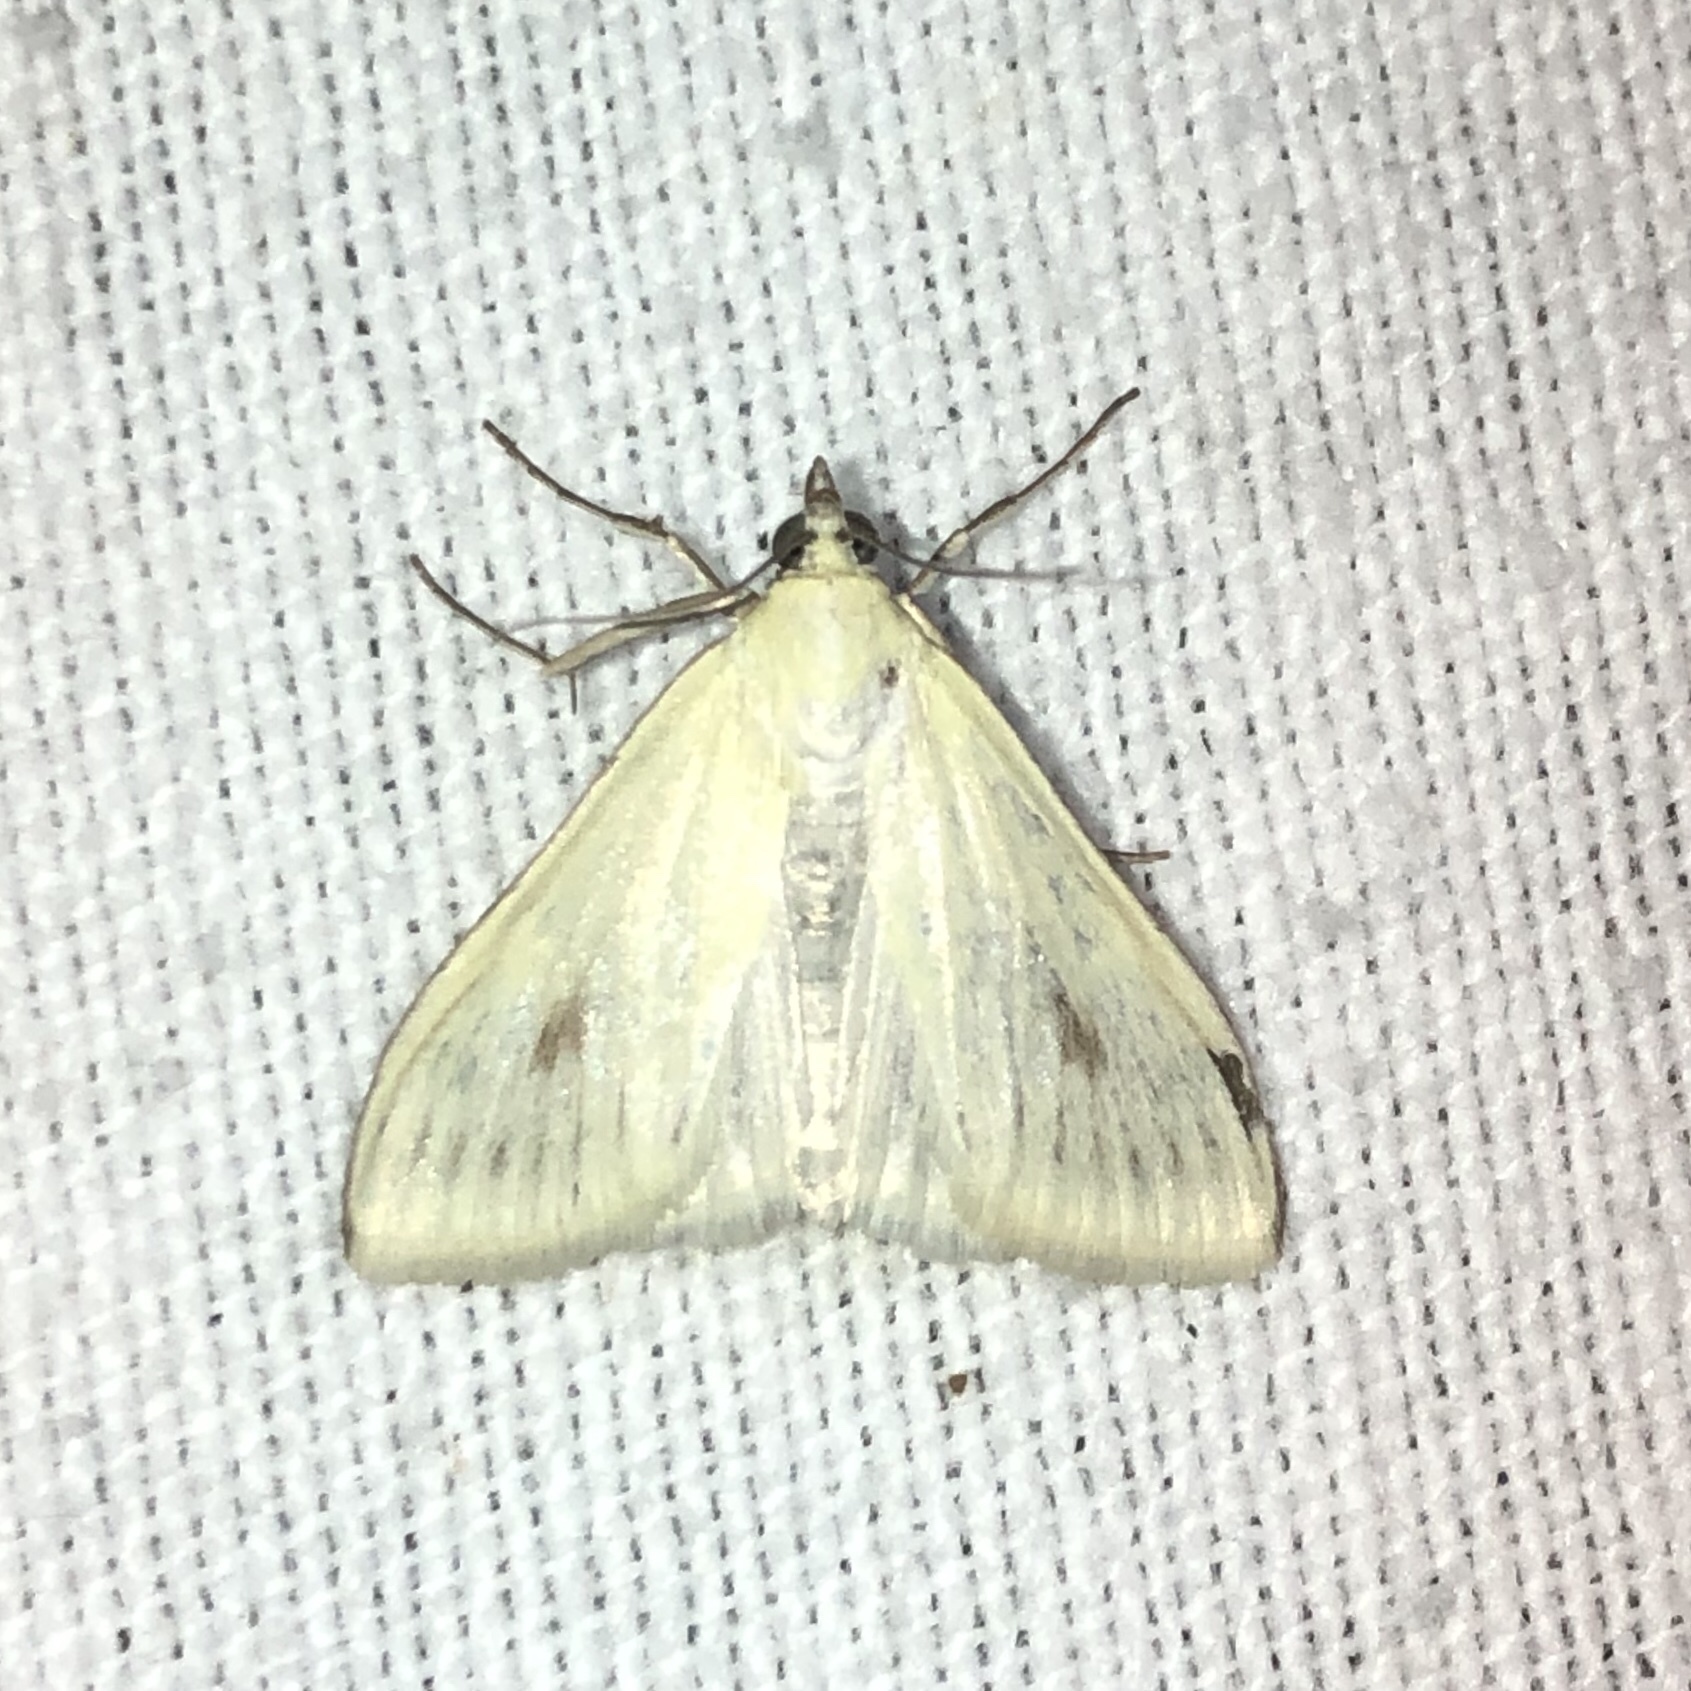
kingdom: Animalia
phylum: Arthropoda
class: Insecta
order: Lepidoptera
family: Crambidae
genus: Sitochroa
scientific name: Sitochroa palealis
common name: Greenish-yellow sitochroa moth
